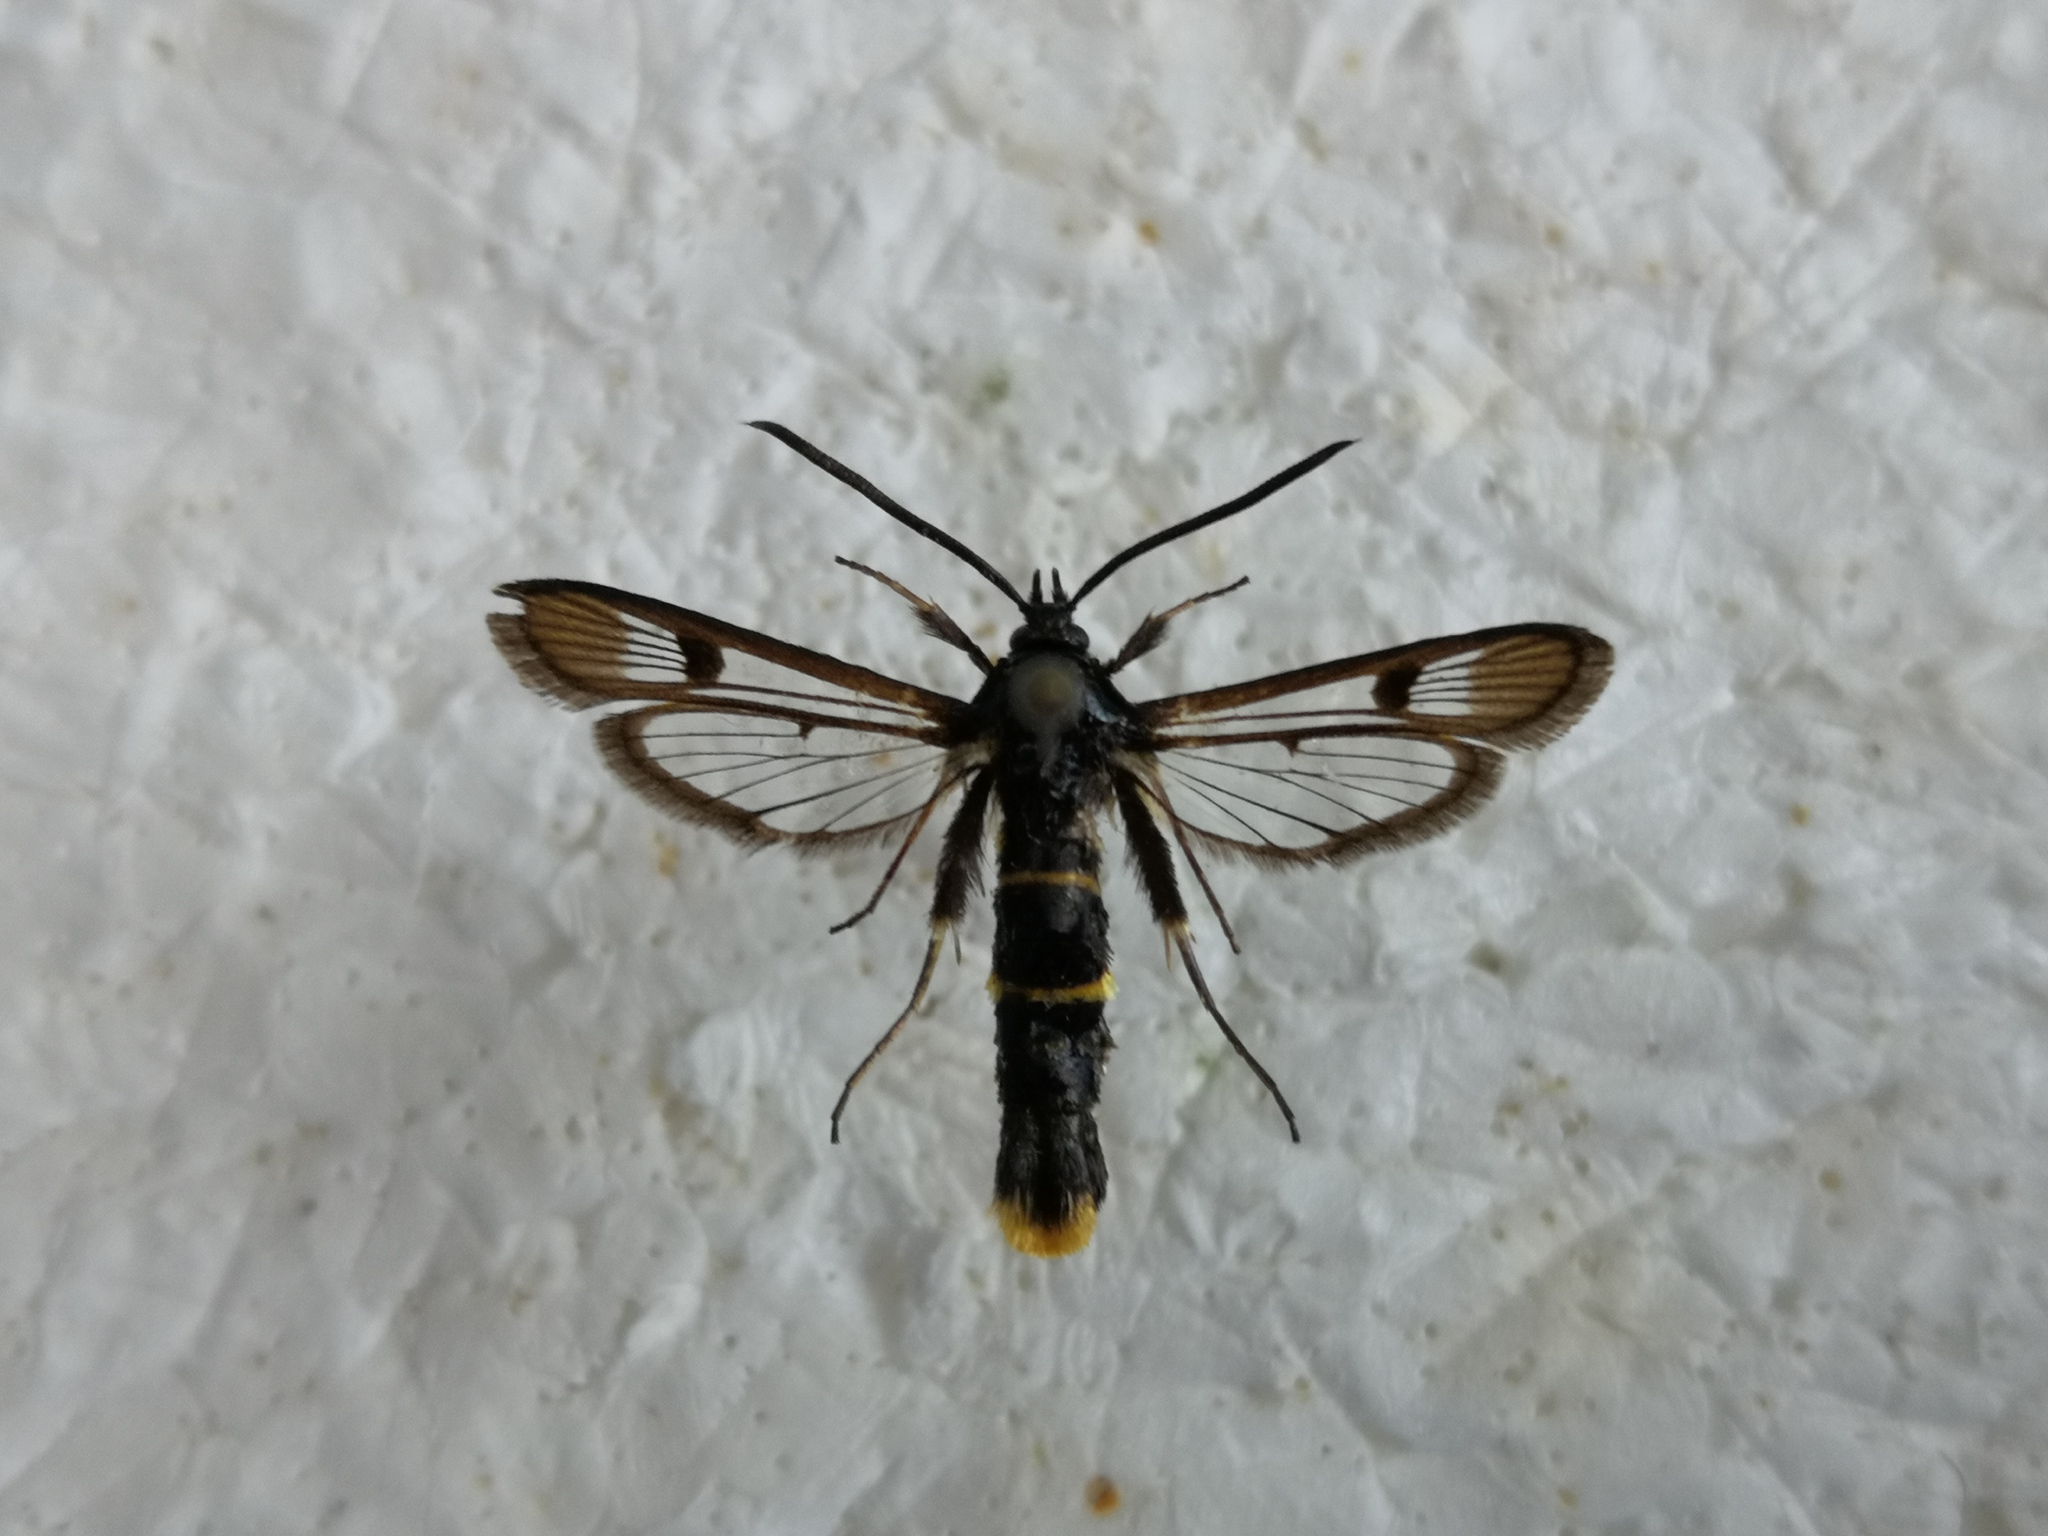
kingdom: Animalia
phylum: Arthropoda
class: Insecta
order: Lepidoptera
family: Sesiidae
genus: Synanthedon
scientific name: Synanthedon andrenaeformis
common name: Orange-tailed clearwing
